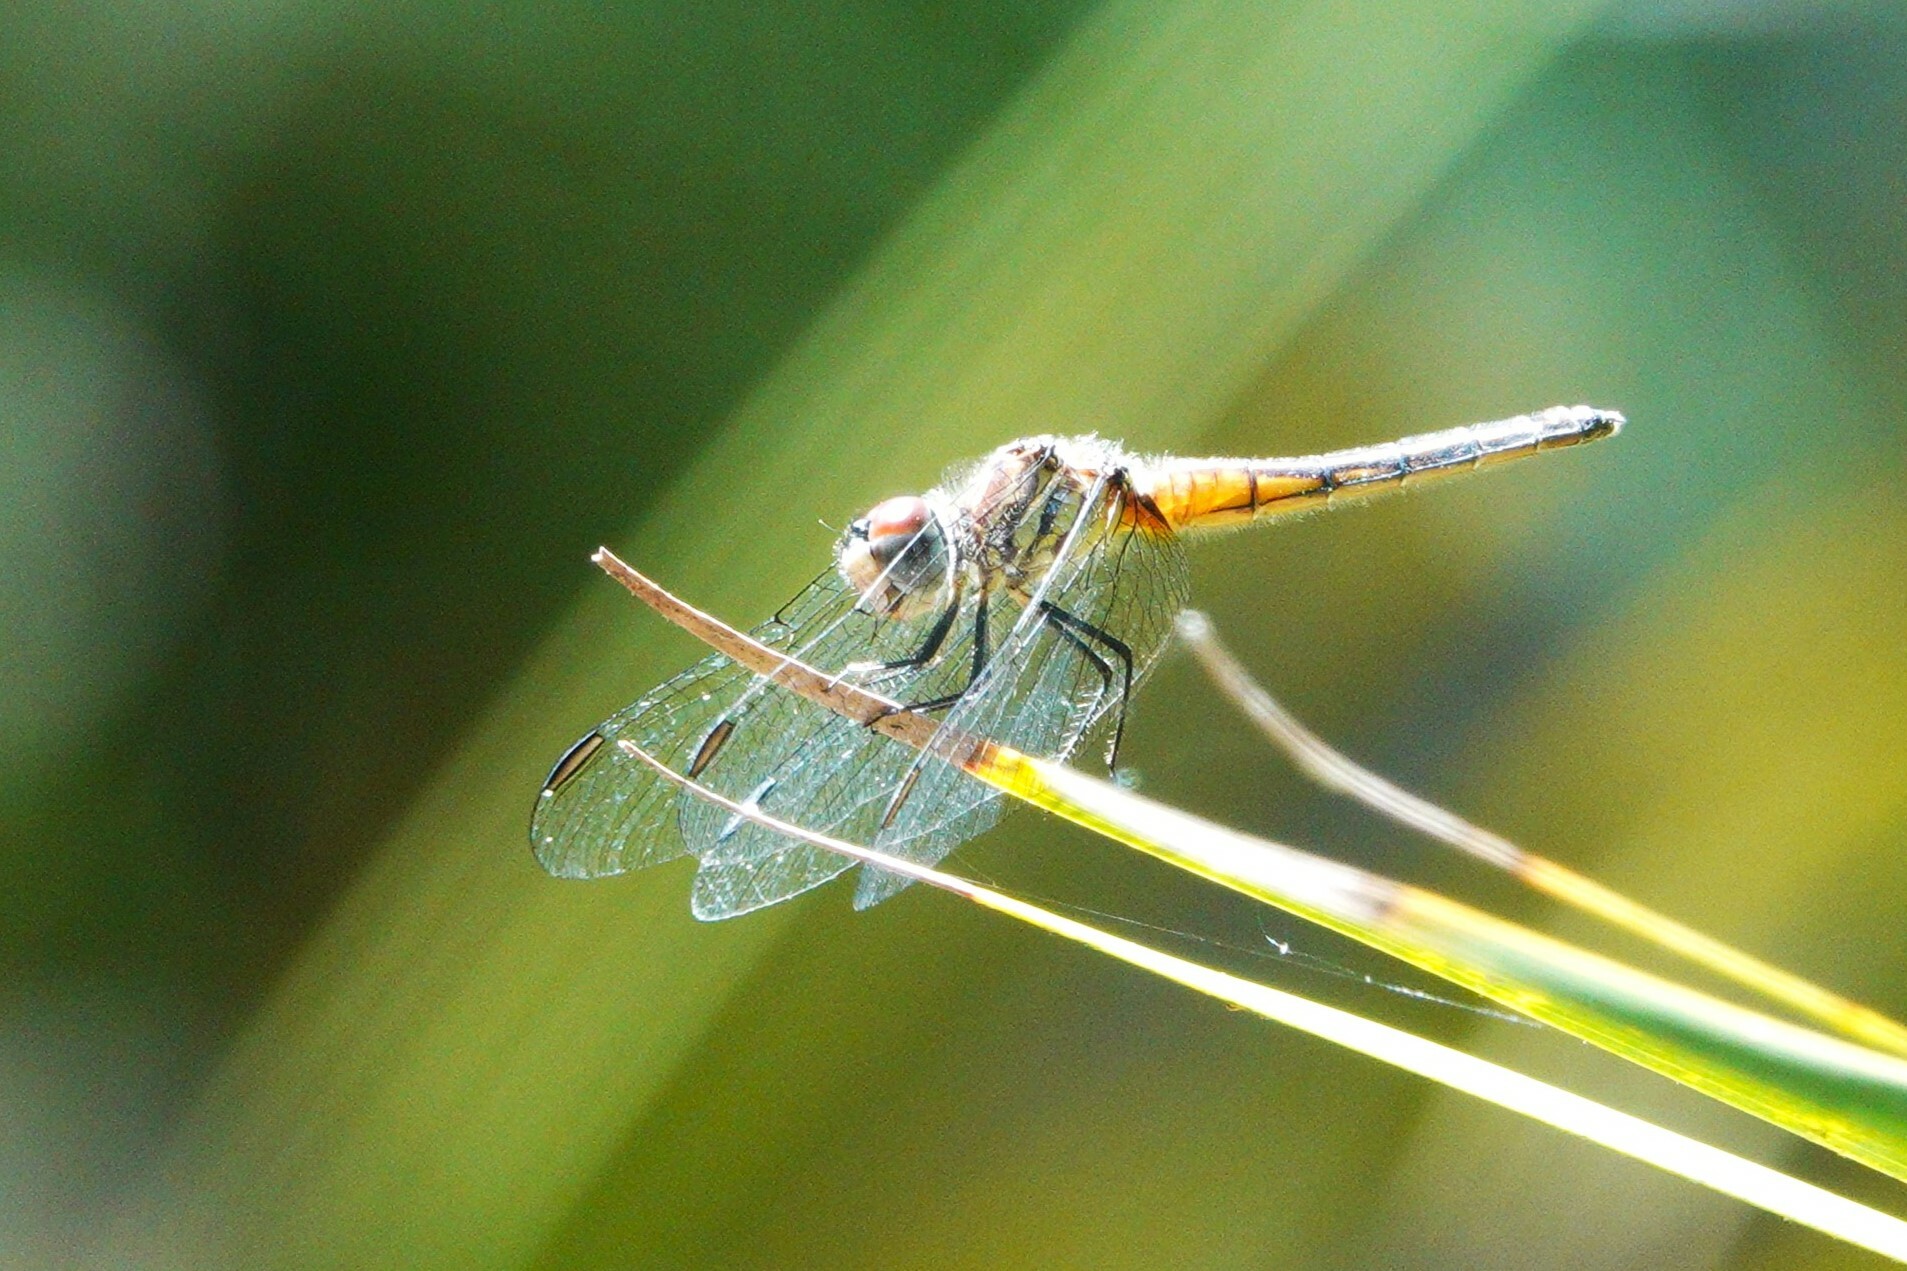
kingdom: Animalia
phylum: Arthropoda
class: Insecta
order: Odonata
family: Libellulidae
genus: Pachydiplax
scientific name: Pachydiplax longipennis
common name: Blue dasher
